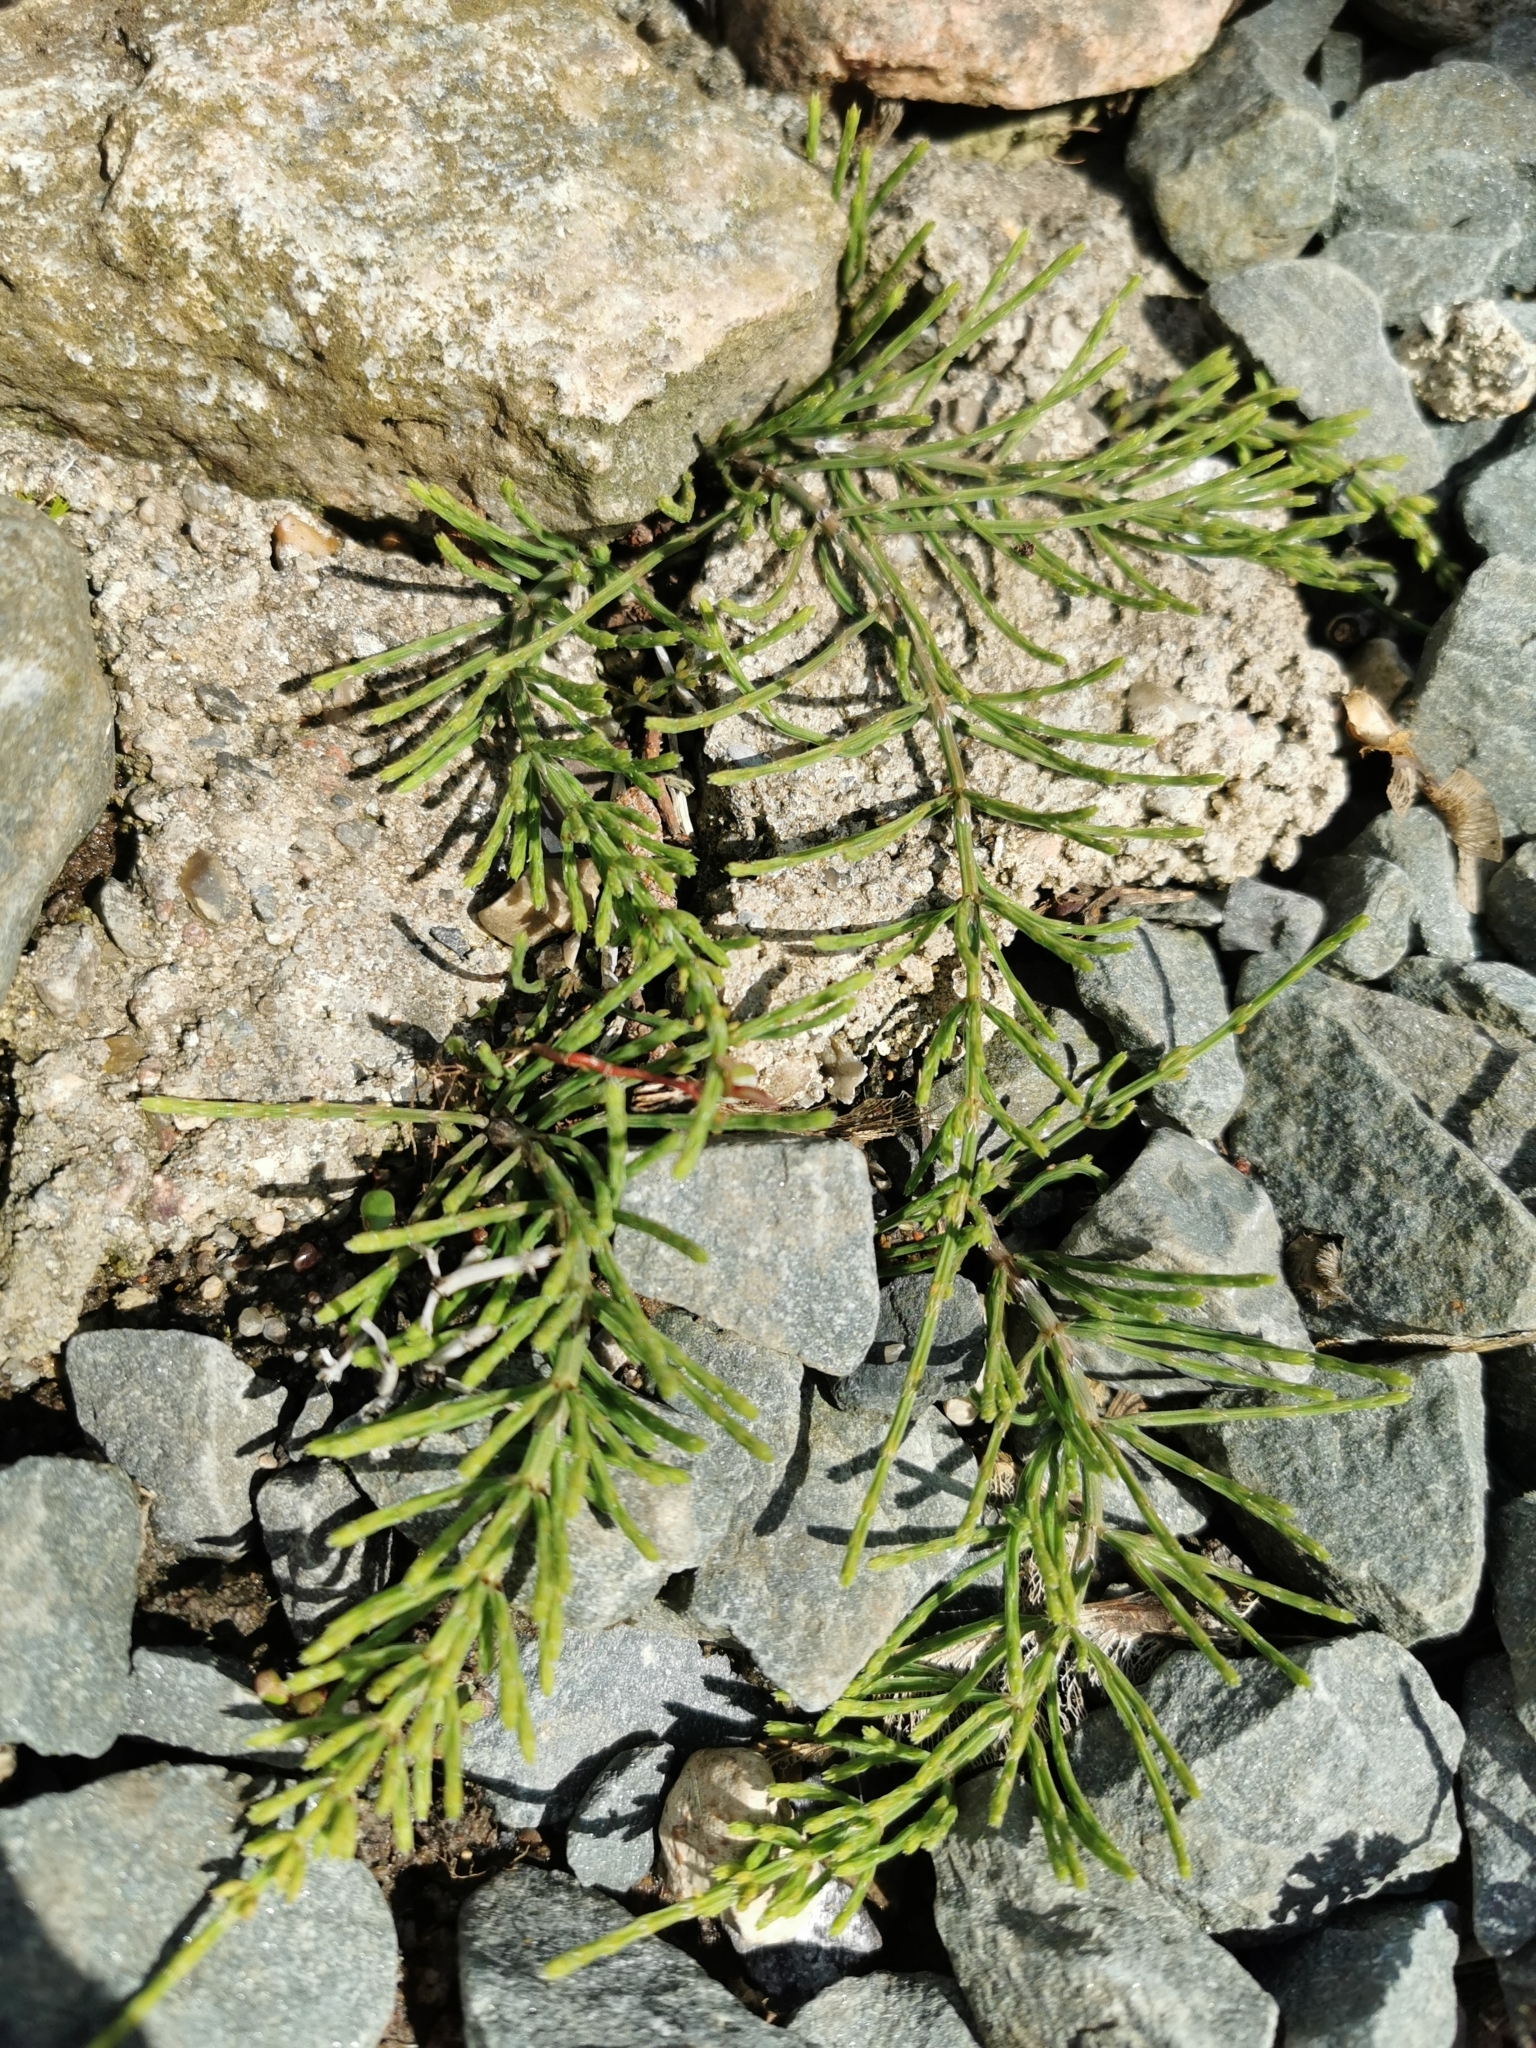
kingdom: Plantae
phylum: Tracheophyta
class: Polypodiopsida
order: Equisetales
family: Equisetaceae
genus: Equisetum
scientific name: Equisetum arvense
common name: Field horsetail
